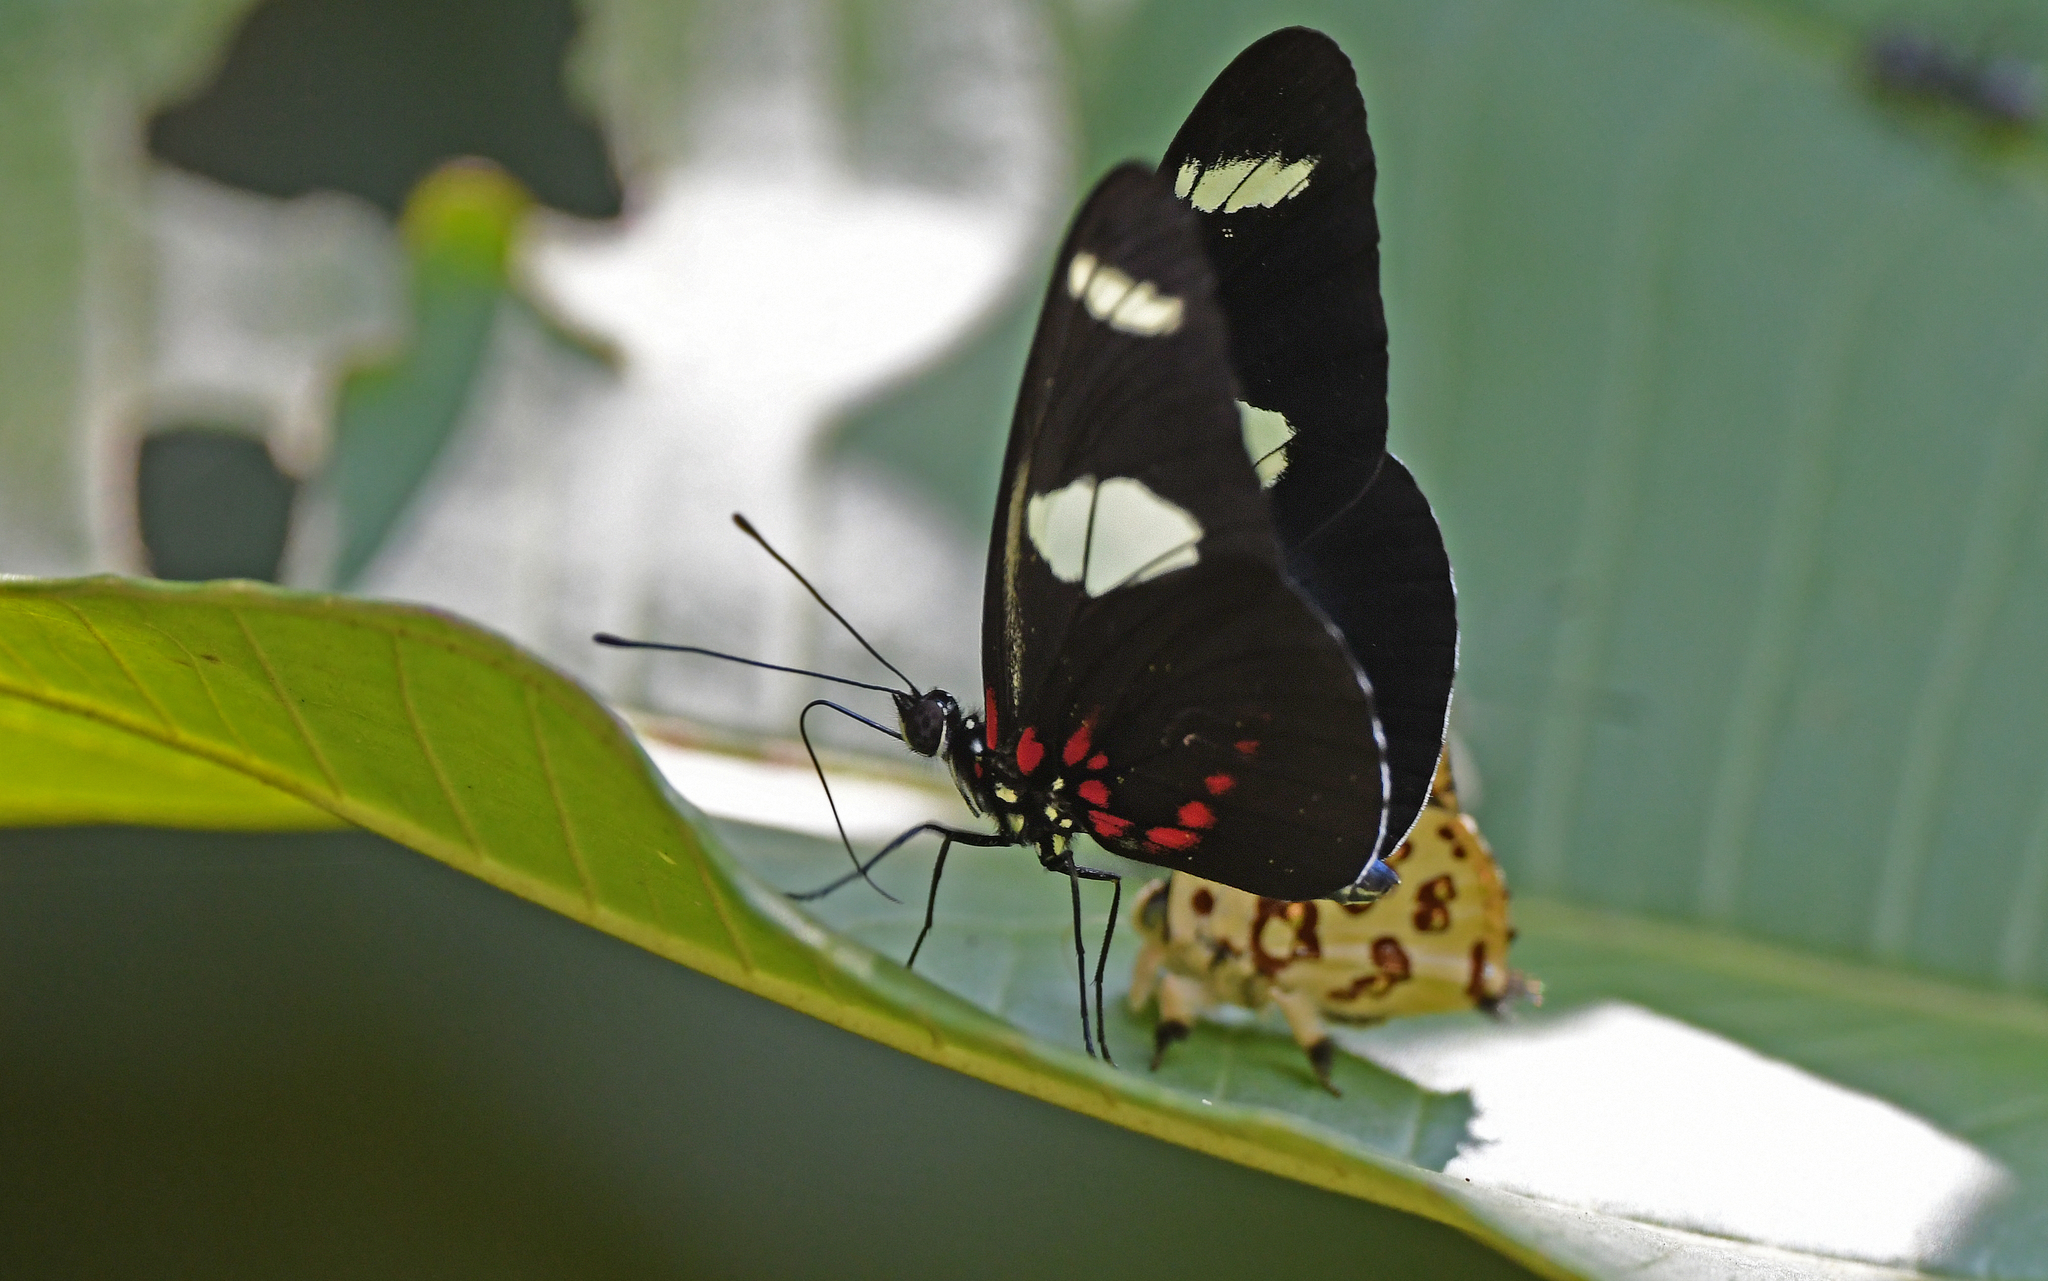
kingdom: Animalia
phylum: Arthropoda
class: Insecta
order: Lepidoptera
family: Nymphalidae
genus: Heliconius
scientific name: Heliconius sara
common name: Sara longwing
